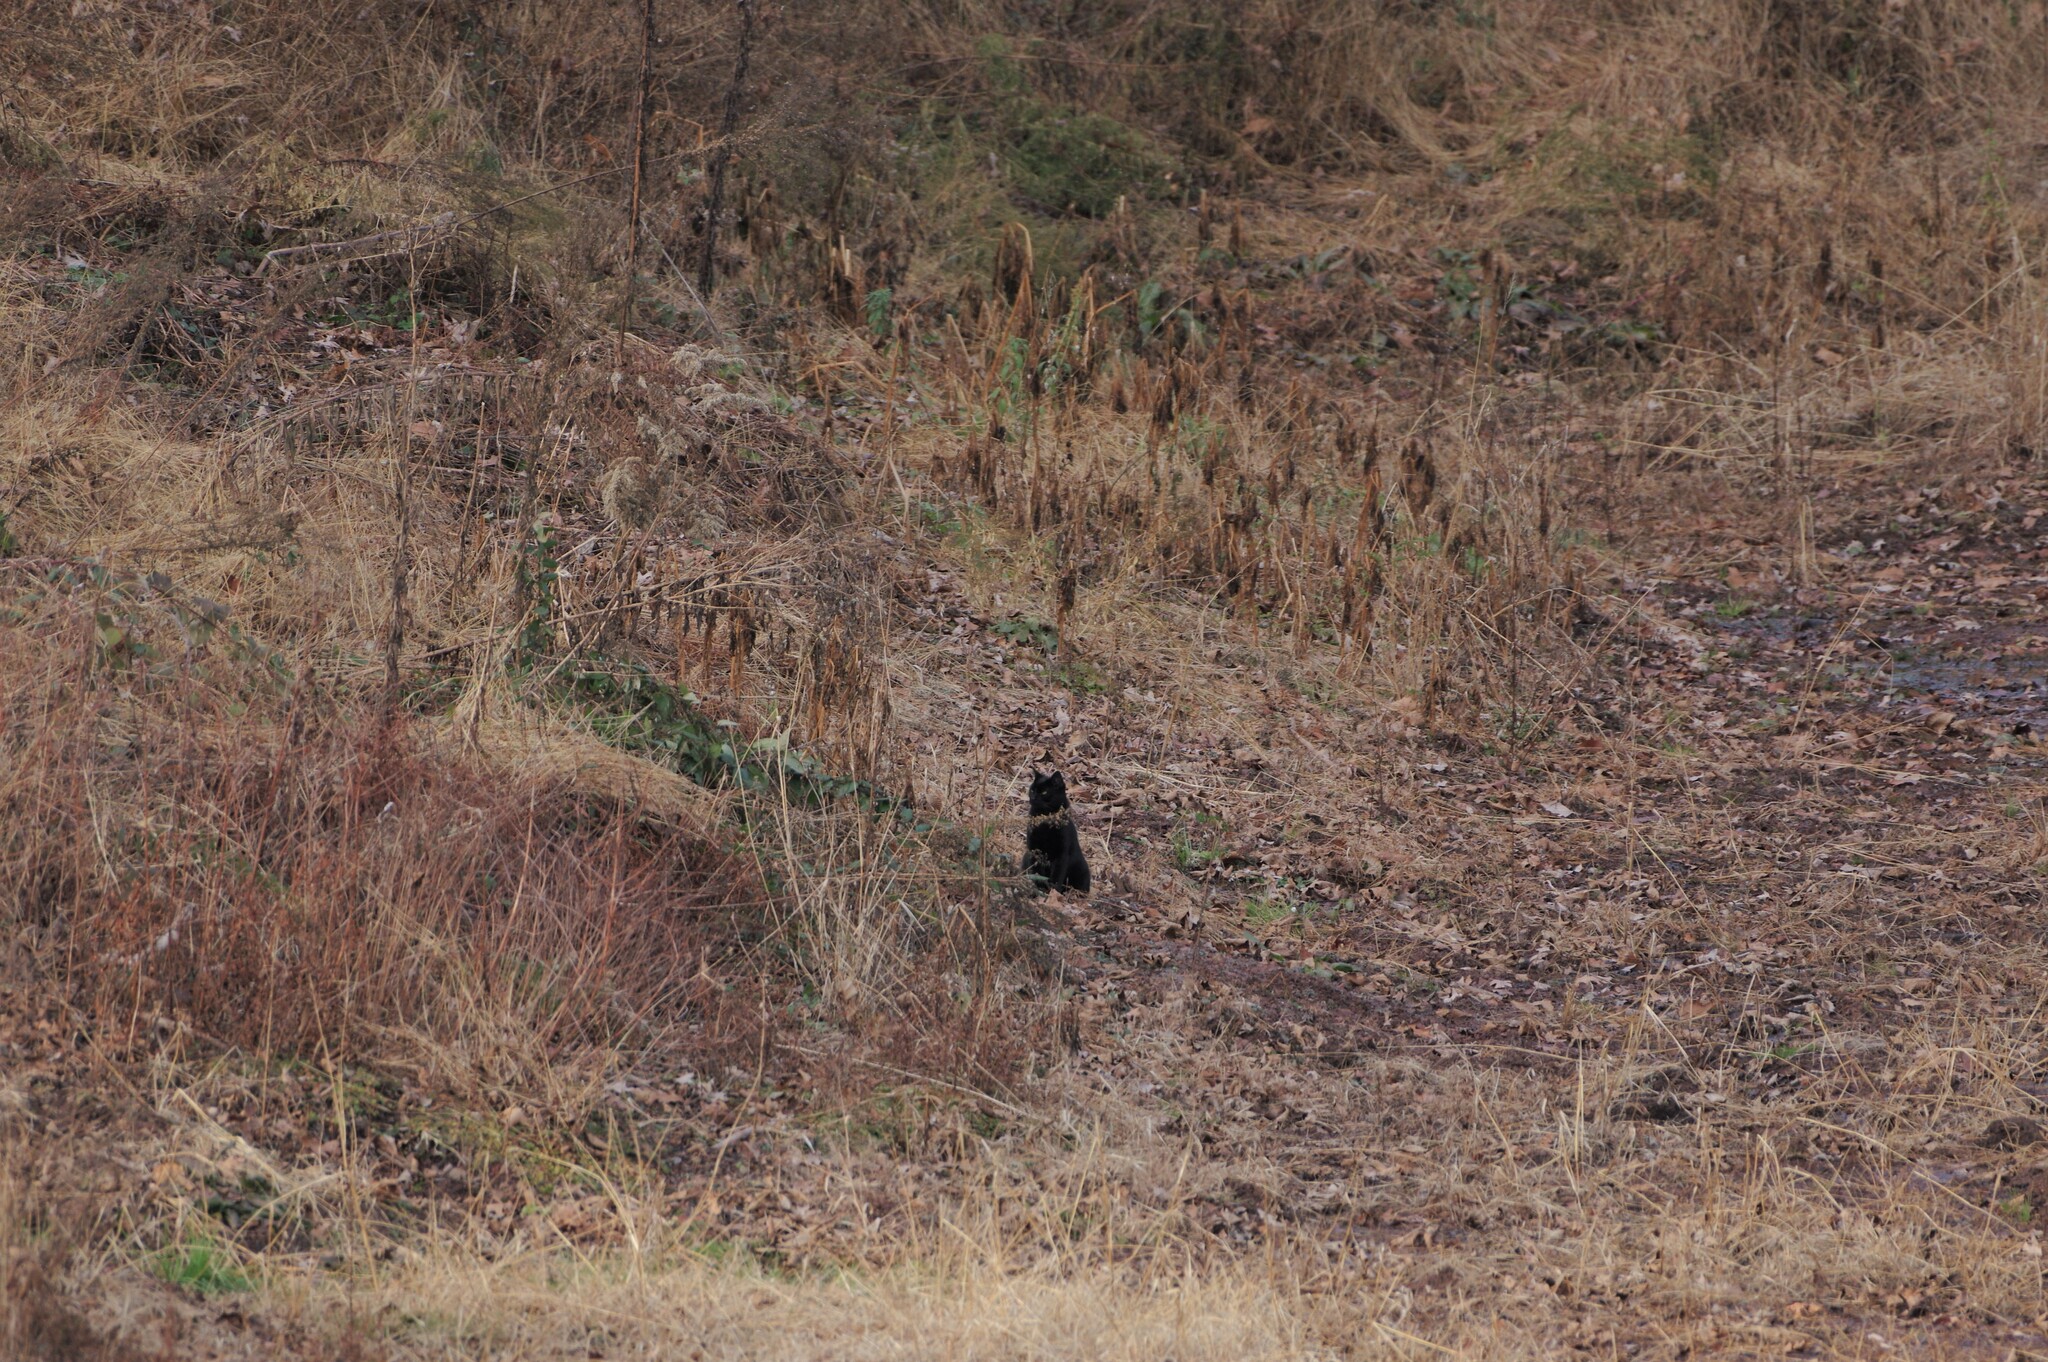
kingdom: Animalia
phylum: Chordata
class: Mammalia
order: Carnivora
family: Felidae
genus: Felis
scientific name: Felis catus
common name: Domestic cat
